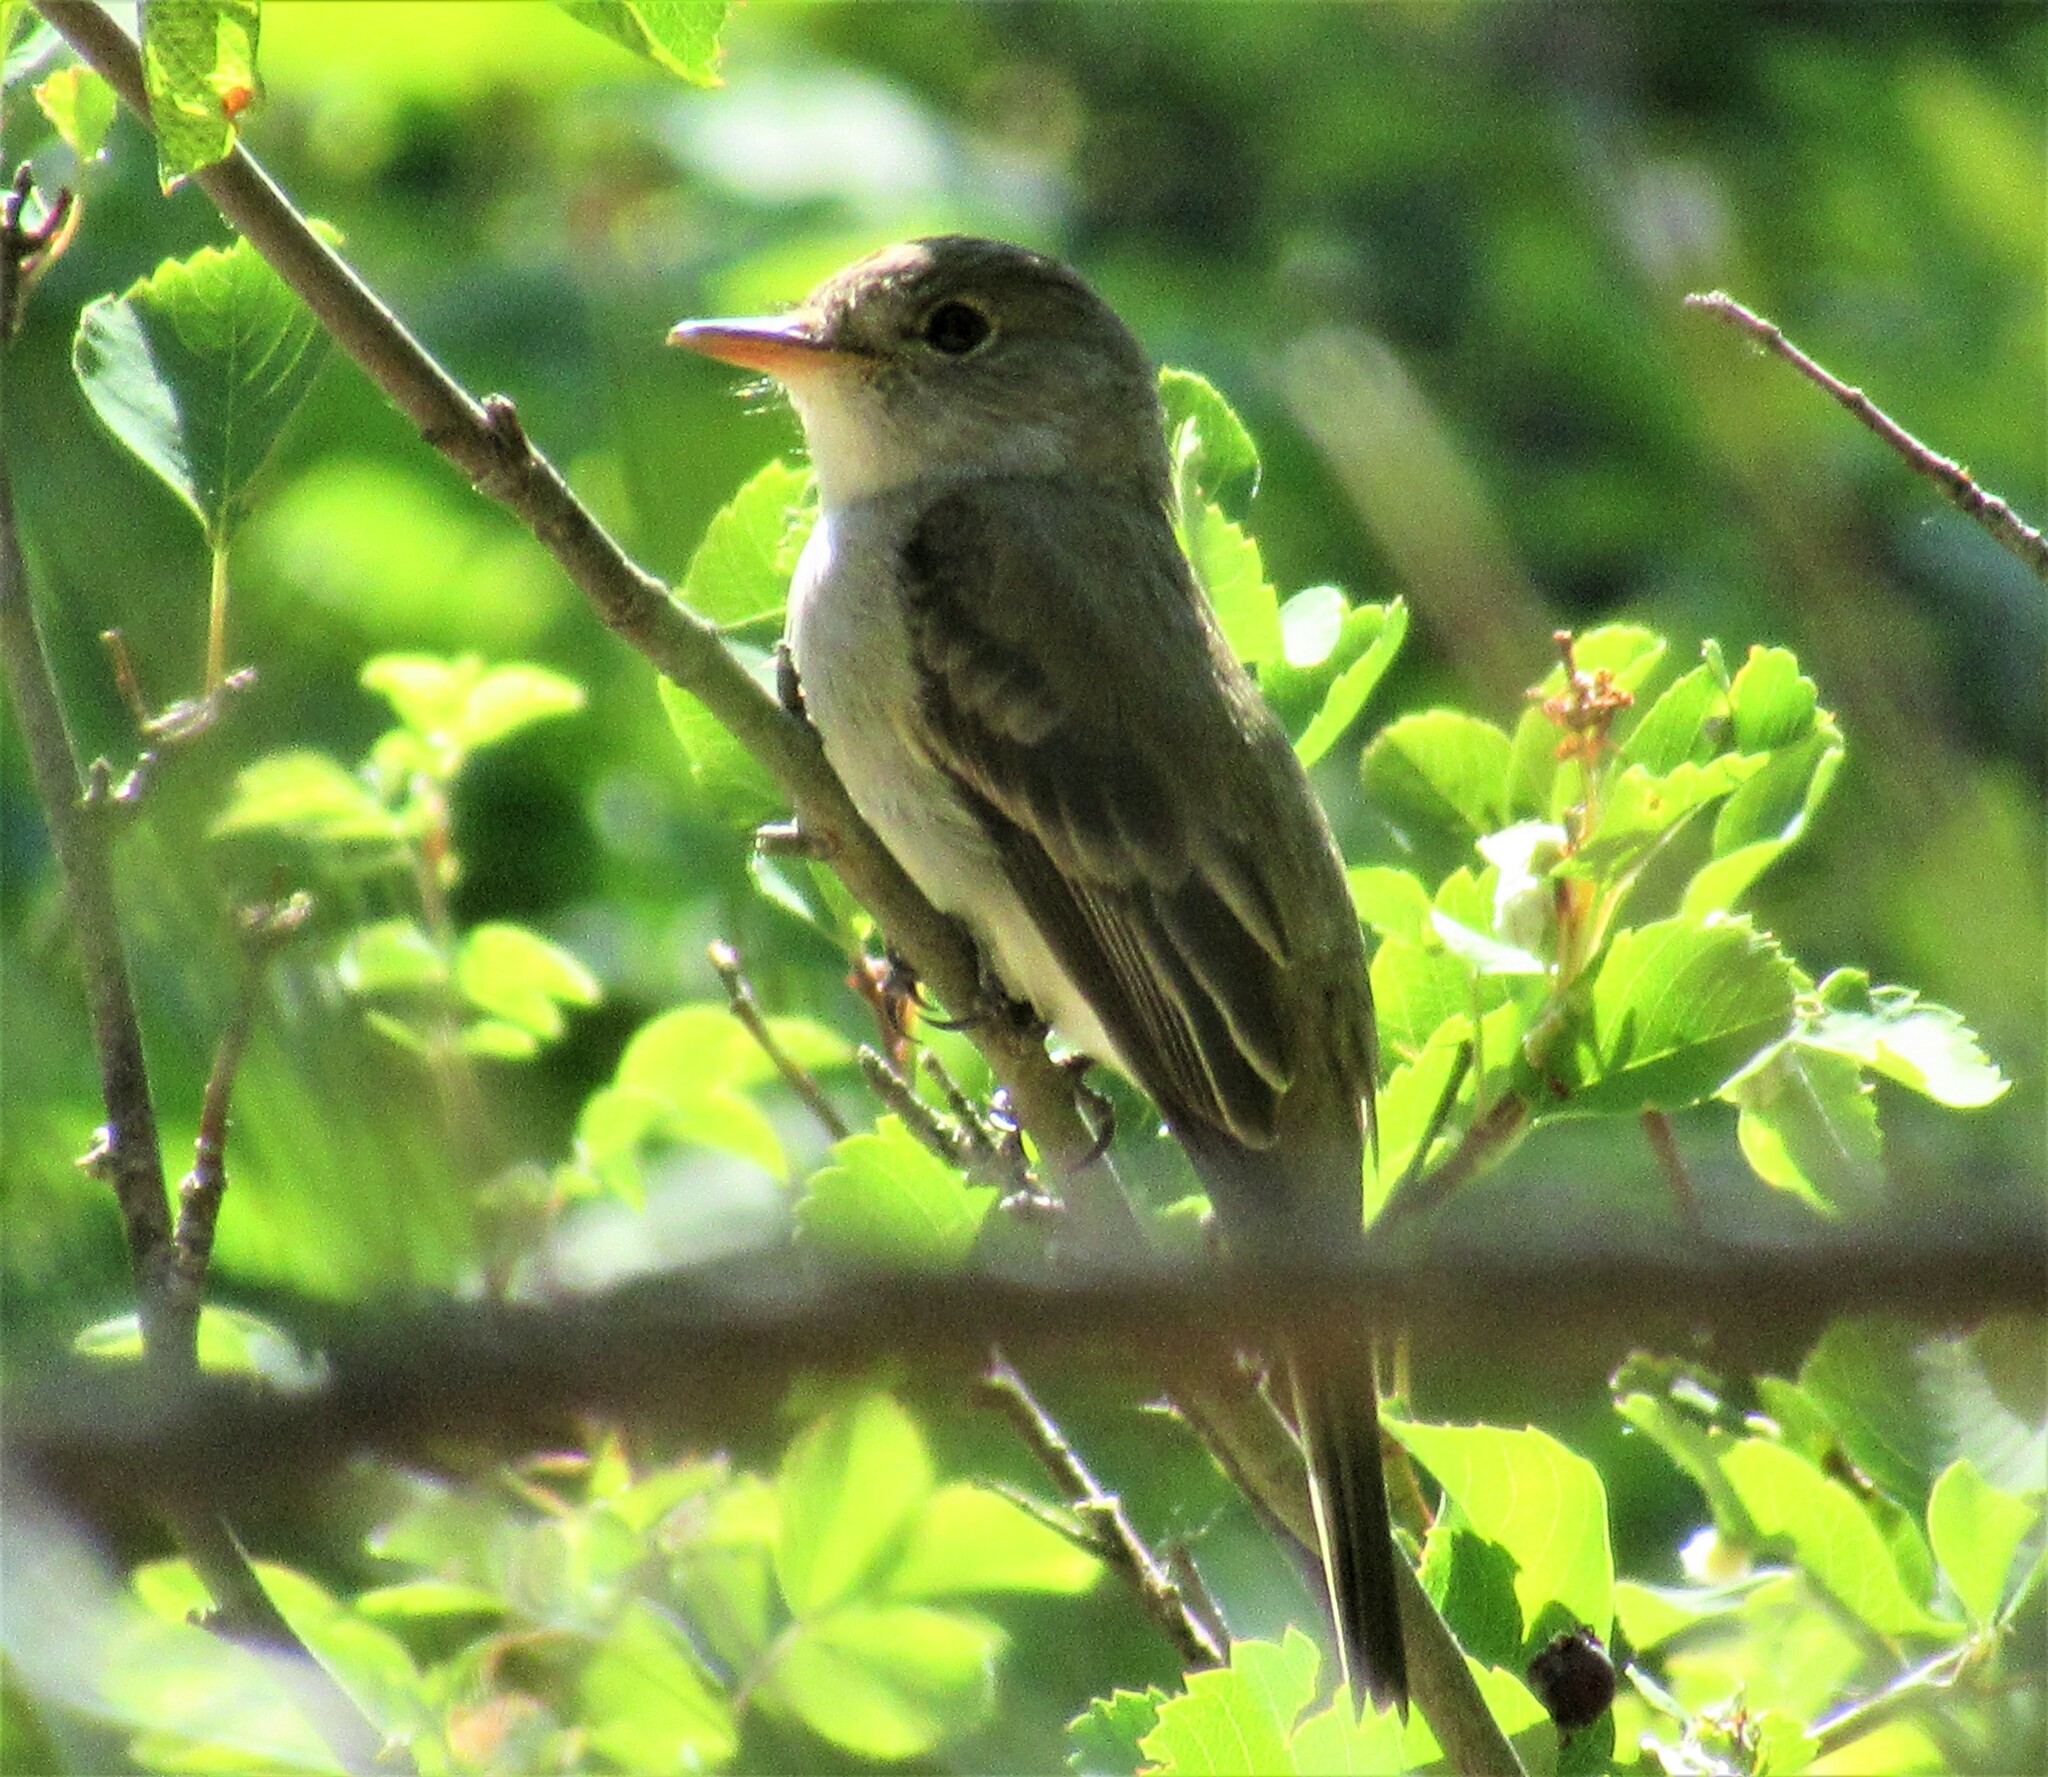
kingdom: Animalia
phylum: Chordata
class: Aves
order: Passeriformes
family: Tyrannidae
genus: Empidonax
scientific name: Empidonax traillii
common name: Willow flycatcher
